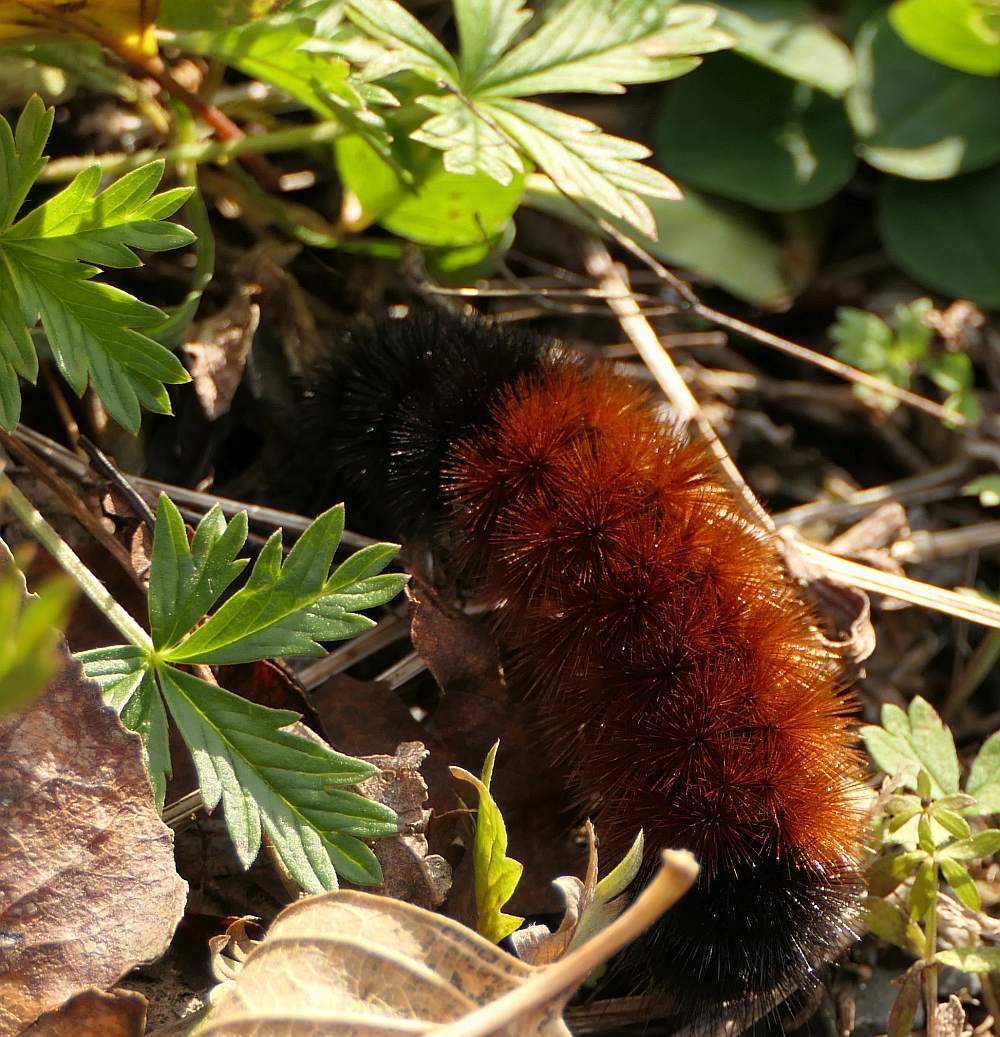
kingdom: Animalia
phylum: Arthropoda
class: Insecta
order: Lepidoptera
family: Erebidae
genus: Pyrrharctia
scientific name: Pyrrharctia isabella
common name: Isabella tiger moth
